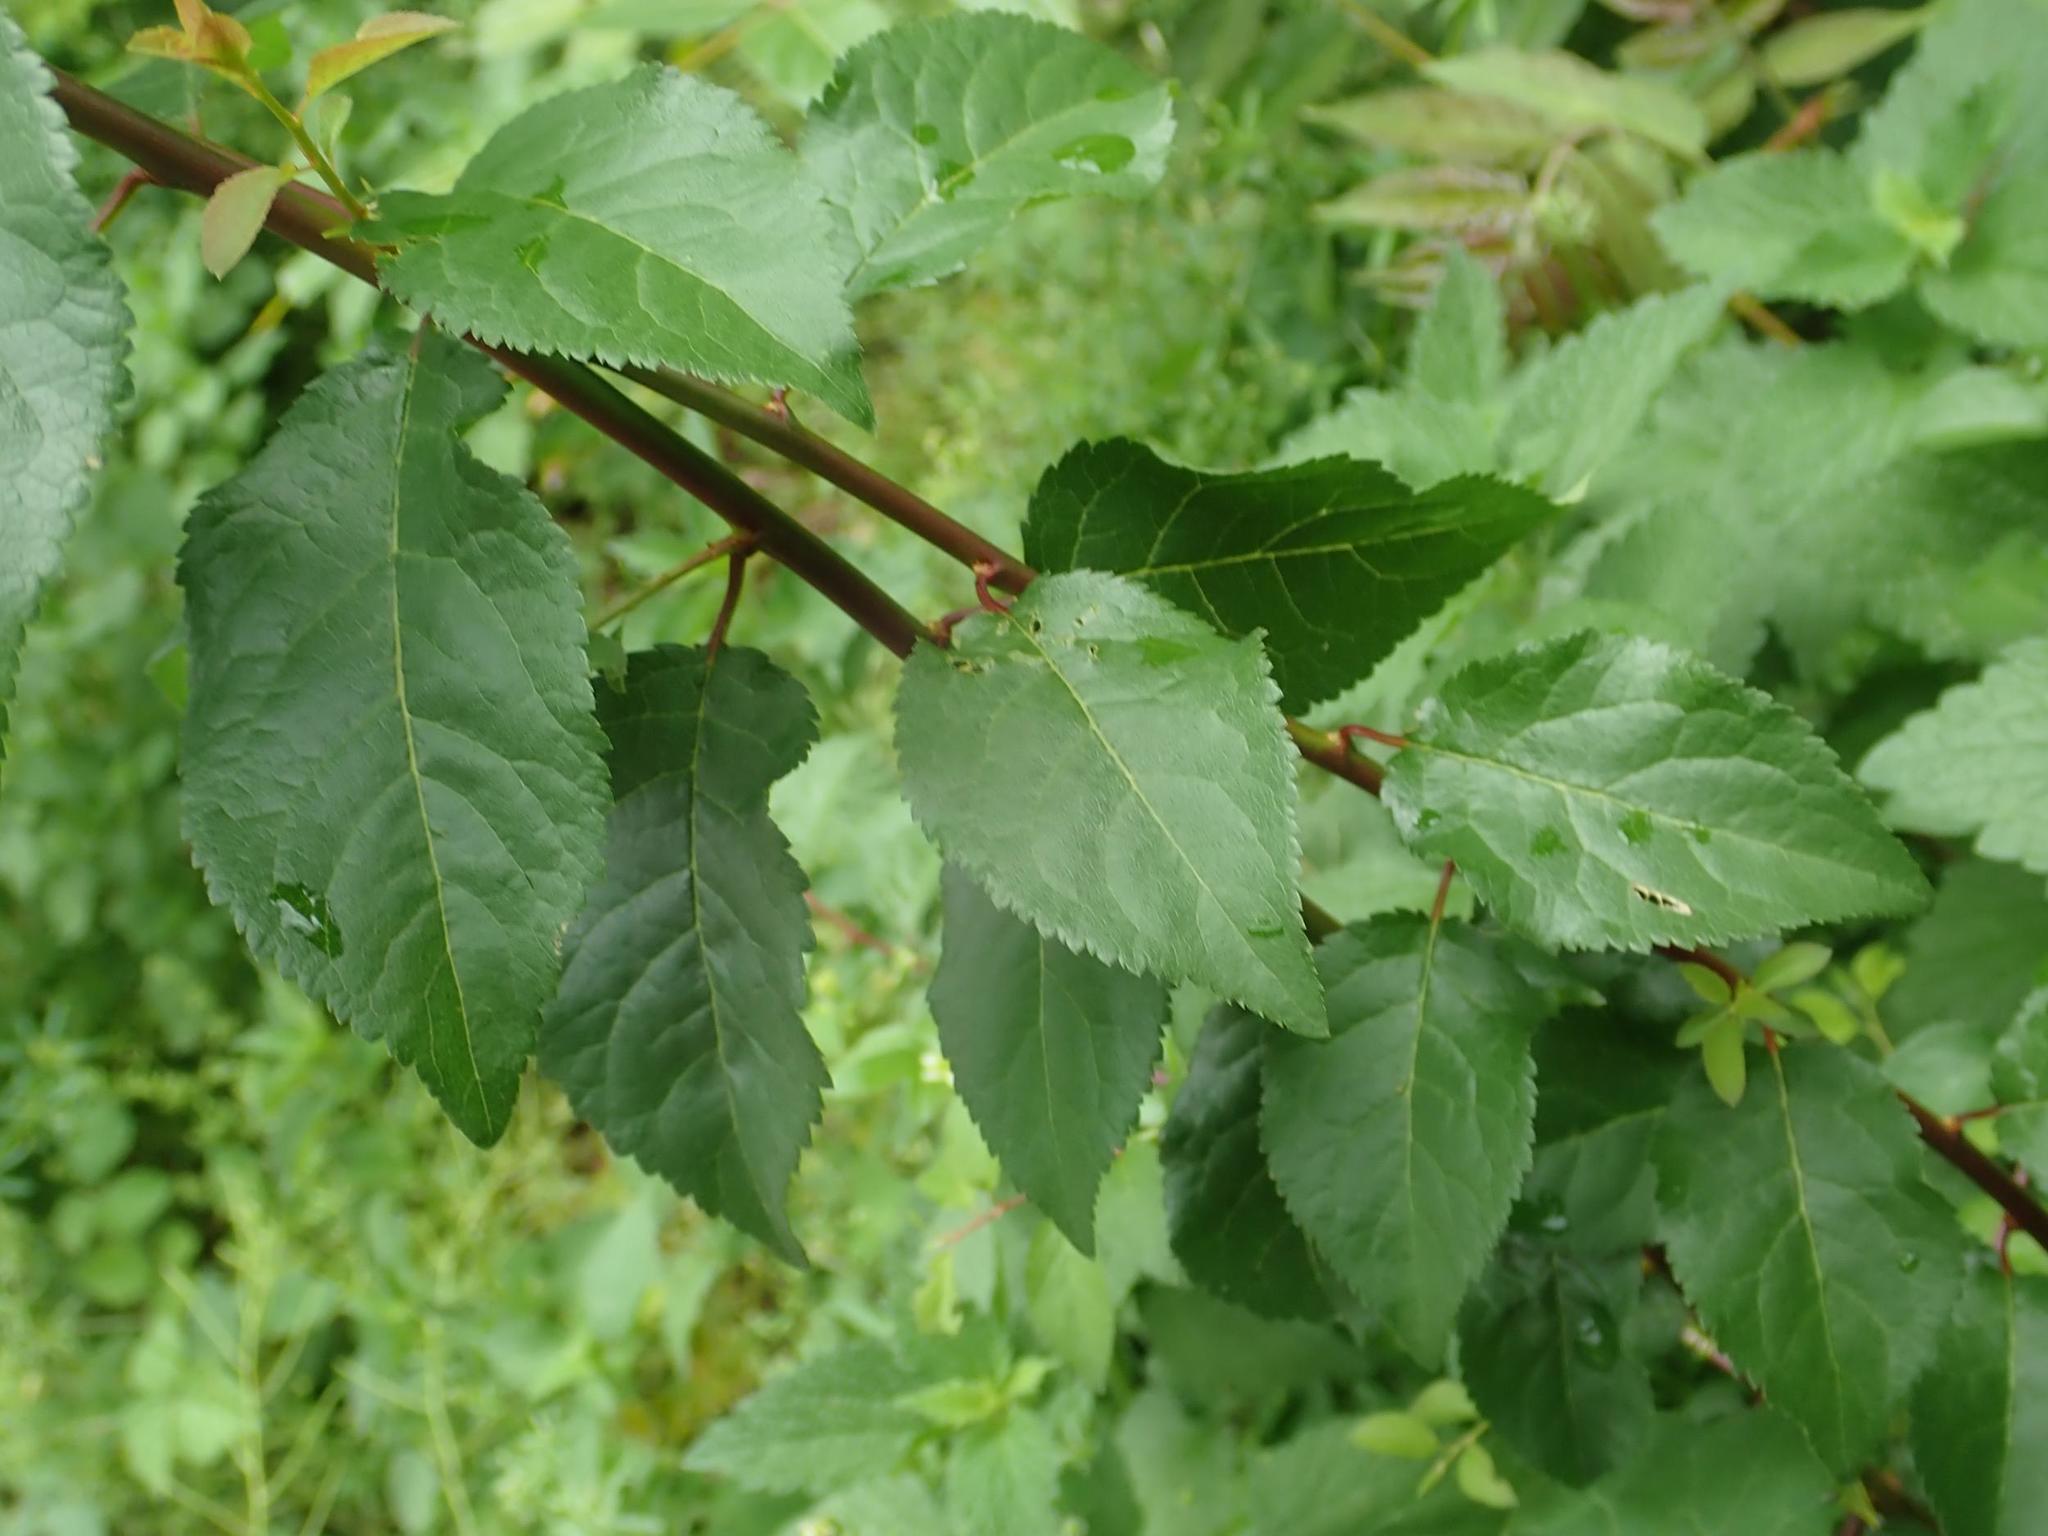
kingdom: Plantae
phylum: Tracheophyta
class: Magnoliopsida
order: Rosales
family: Rosaceae
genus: Prunus
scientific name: Prunus cerasifera
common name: Cherry plum
